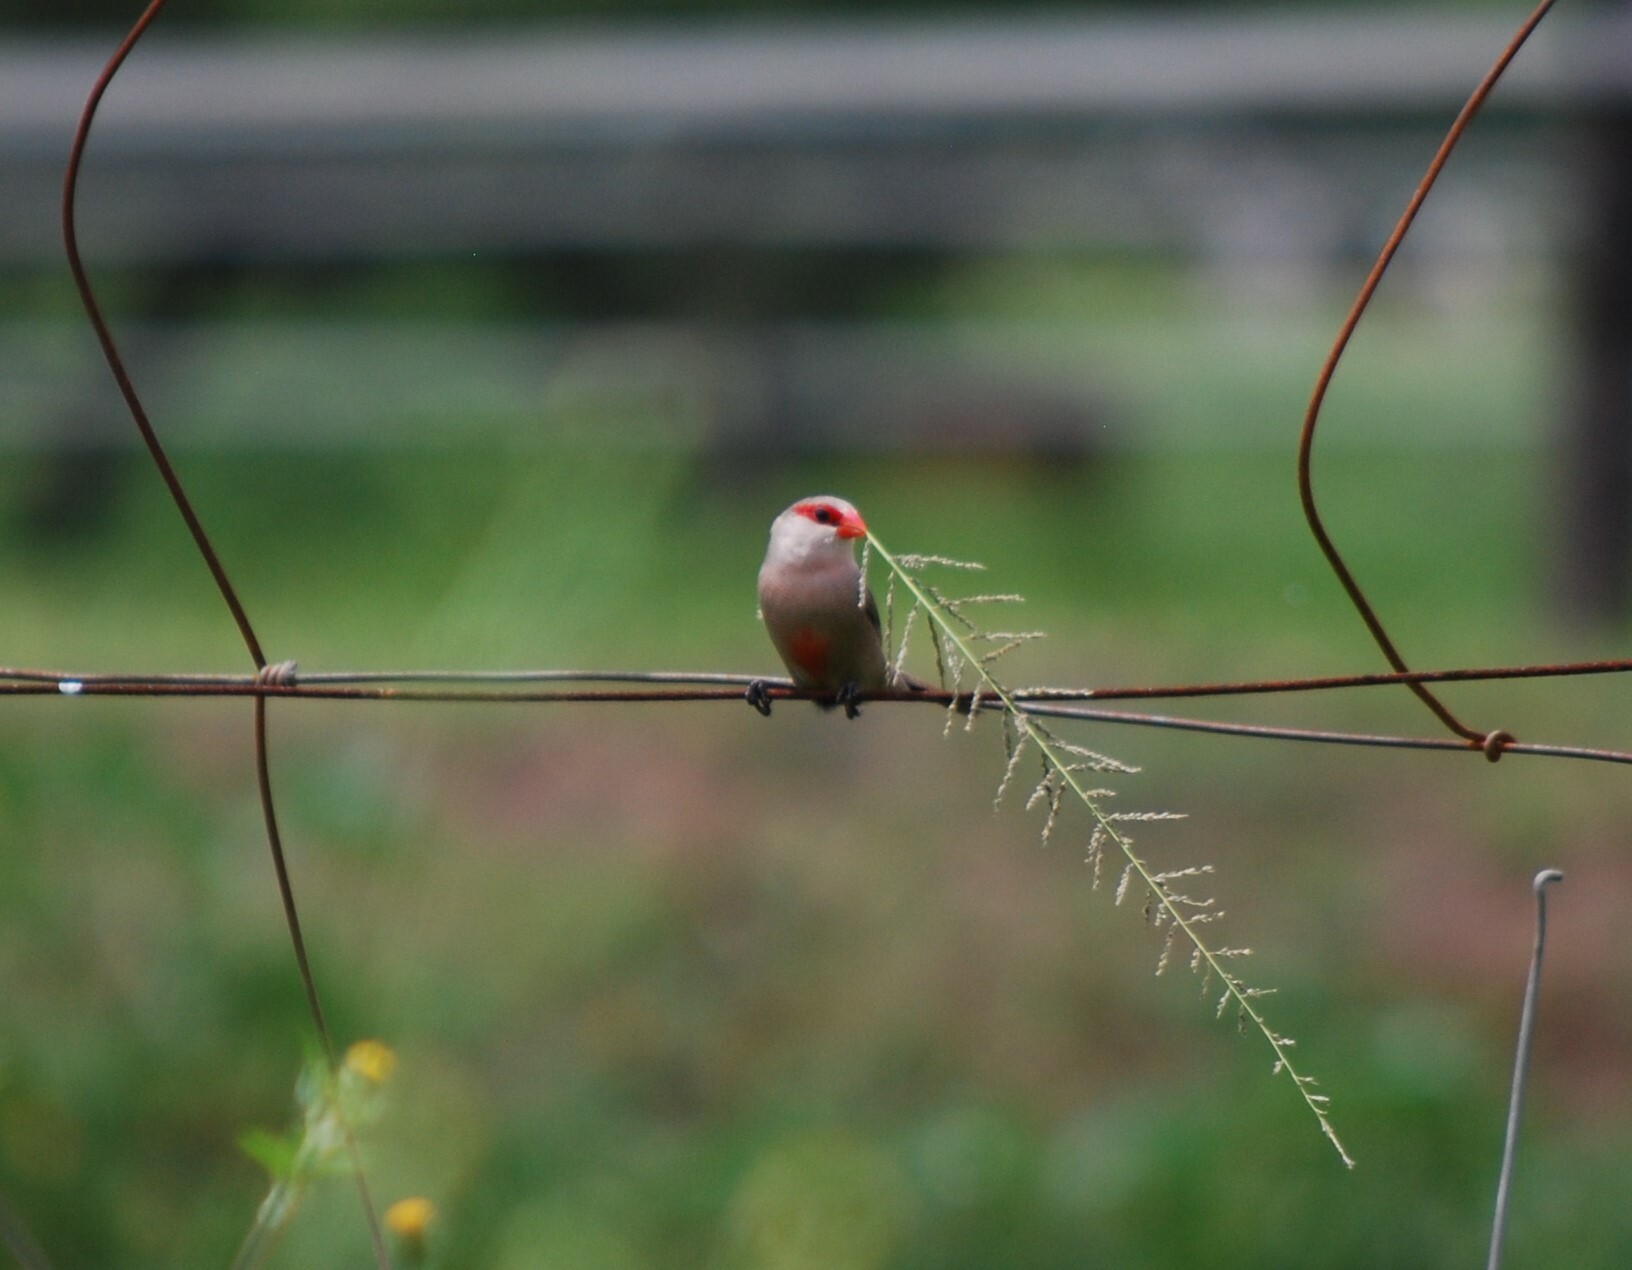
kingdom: Animalia
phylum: Chordata
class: Aves
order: Passeriformes
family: Estrildidae
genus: Estrilda
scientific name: Estrilda astrild
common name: Common waxbill
